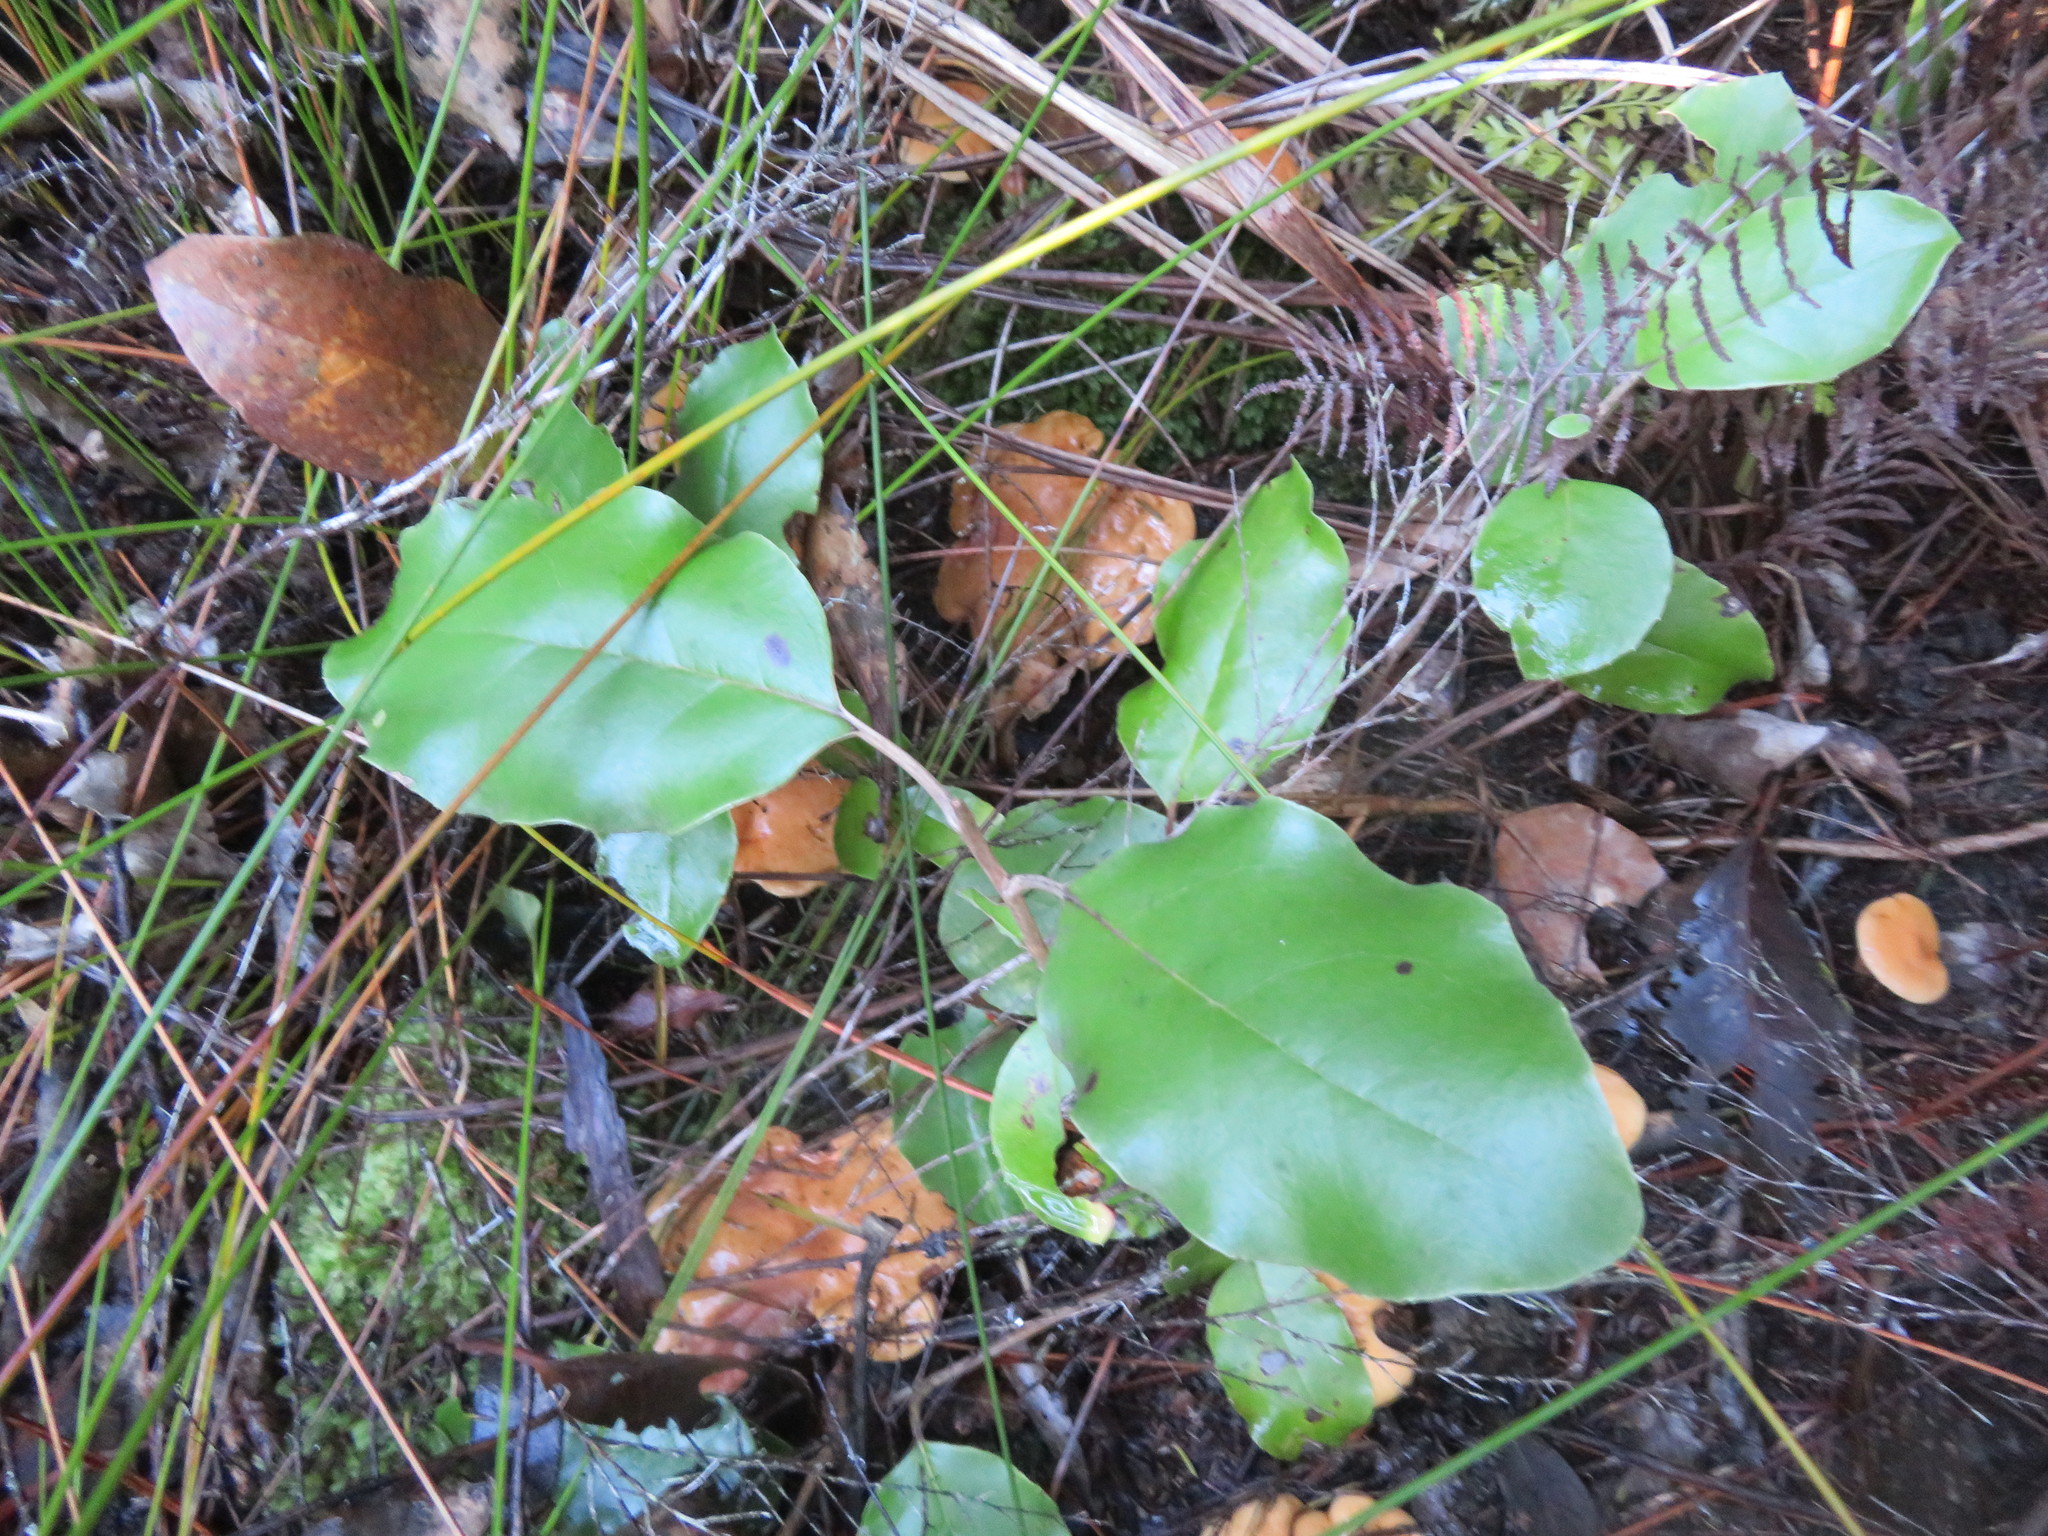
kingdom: Plantae
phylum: Tracheophyta
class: Magnoliopsida
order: Asterales
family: Asteraceae
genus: Olearia
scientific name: Olearia furfuracea
